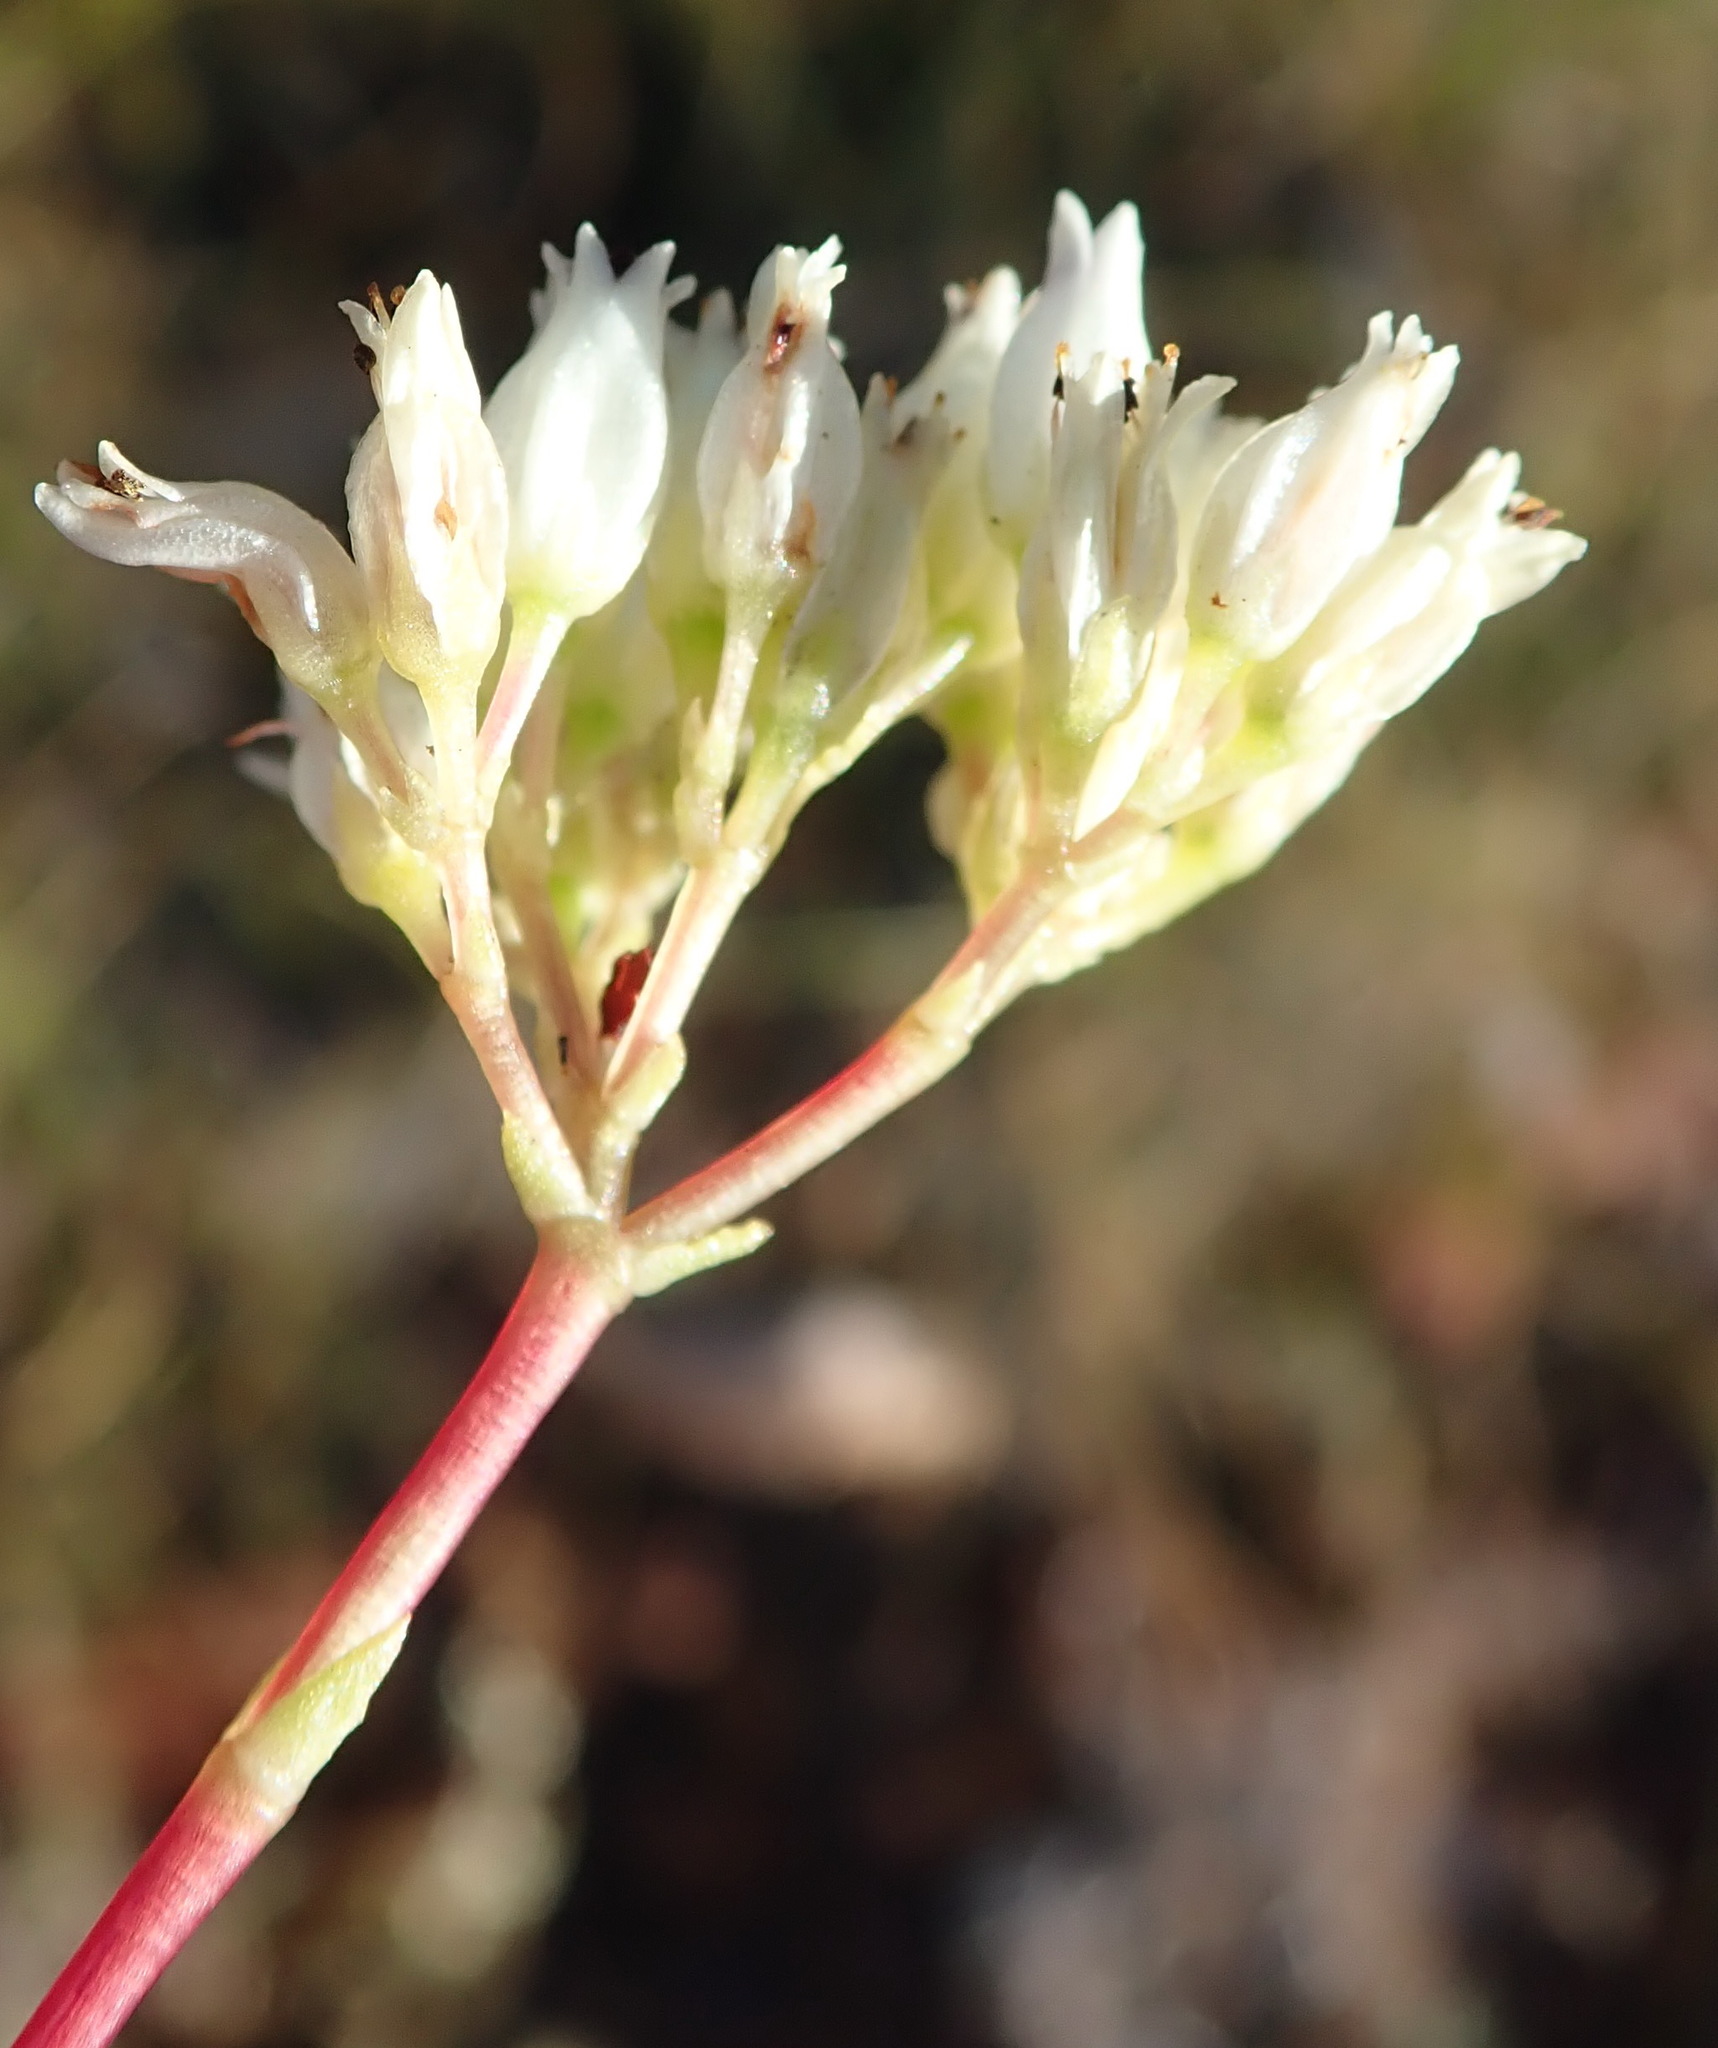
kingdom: Plantae
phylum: Tracheophyta
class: Magnoliopsida
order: Saxifragales
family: Crassulaceae
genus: Crassula
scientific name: Crassula biplanata
